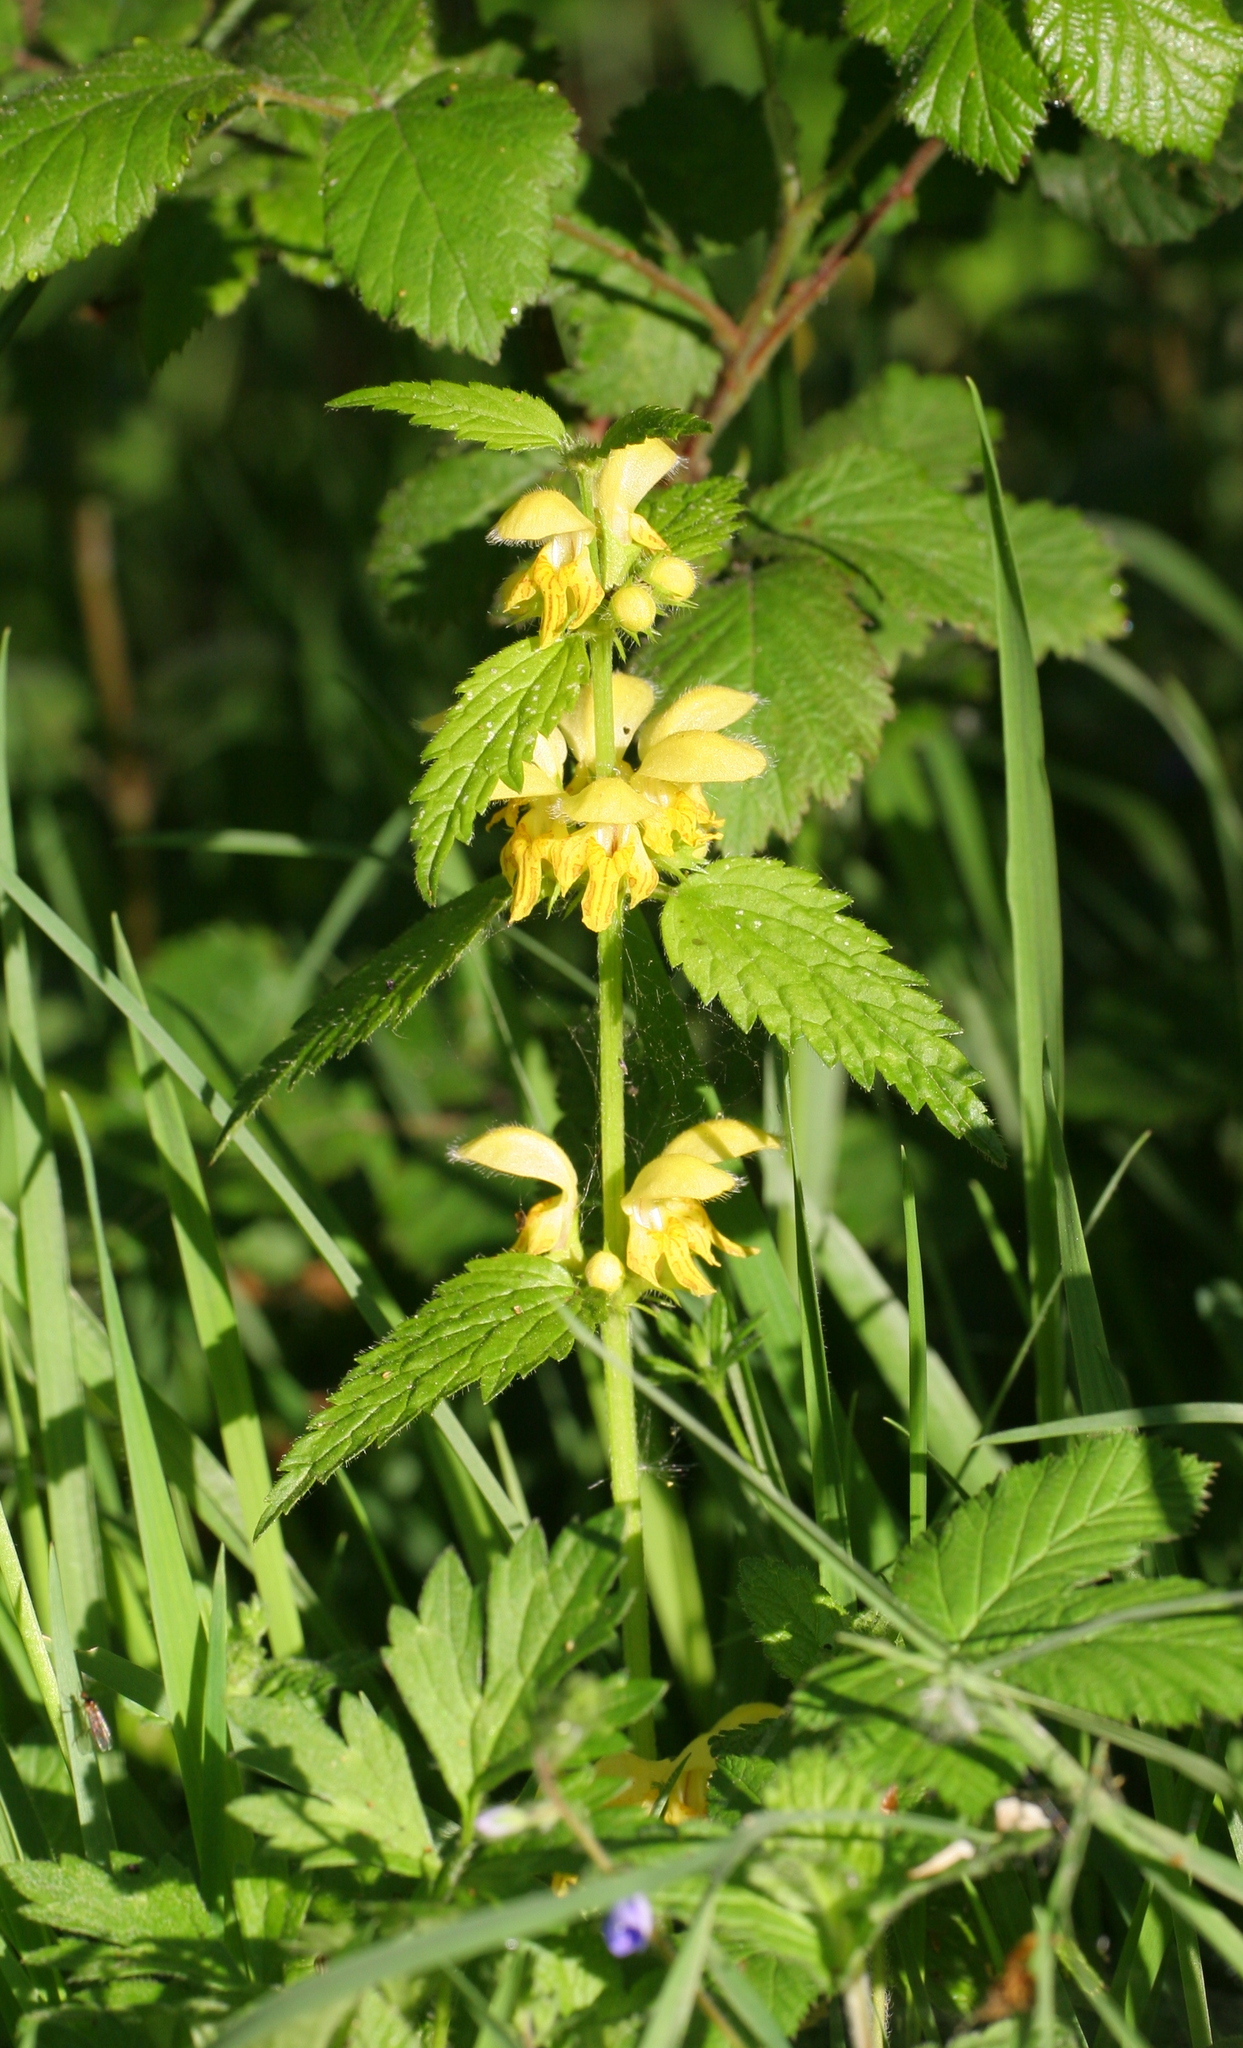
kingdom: Plantae
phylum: Tracheophyta
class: Magnoliopsida
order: Lamiales
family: Lamiaceae
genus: Lamium
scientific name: Lamium galeobdolon
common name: Yellow archangel
